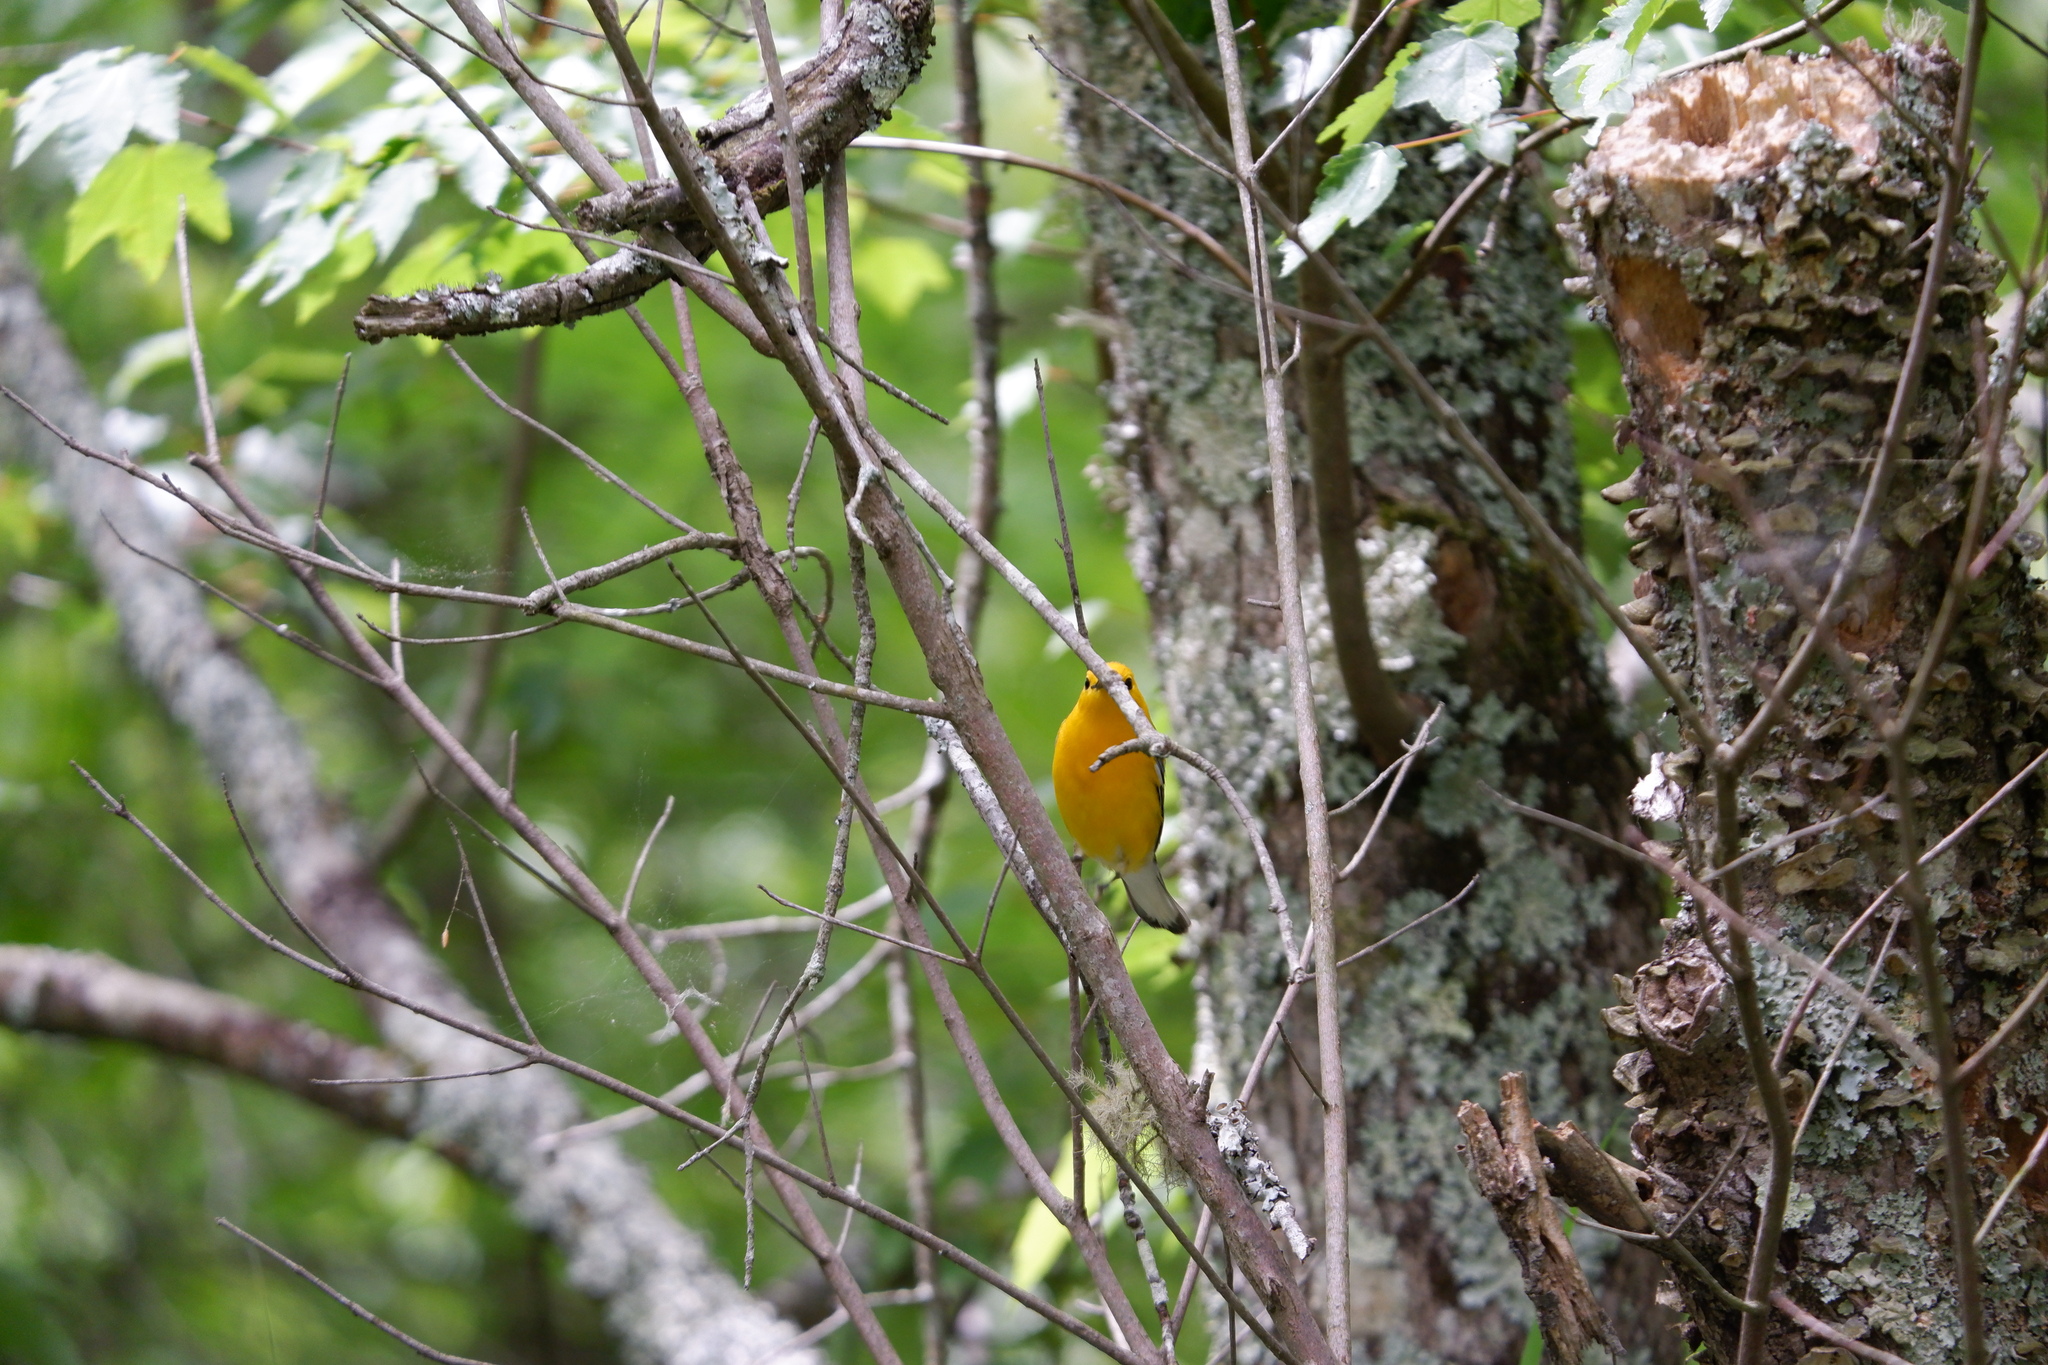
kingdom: Animalia
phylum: Chordata
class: Aves
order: Passeriformes
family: Parulidae
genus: Protonotaria
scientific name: Protonotaria citrea
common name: Prothonotary warbler
